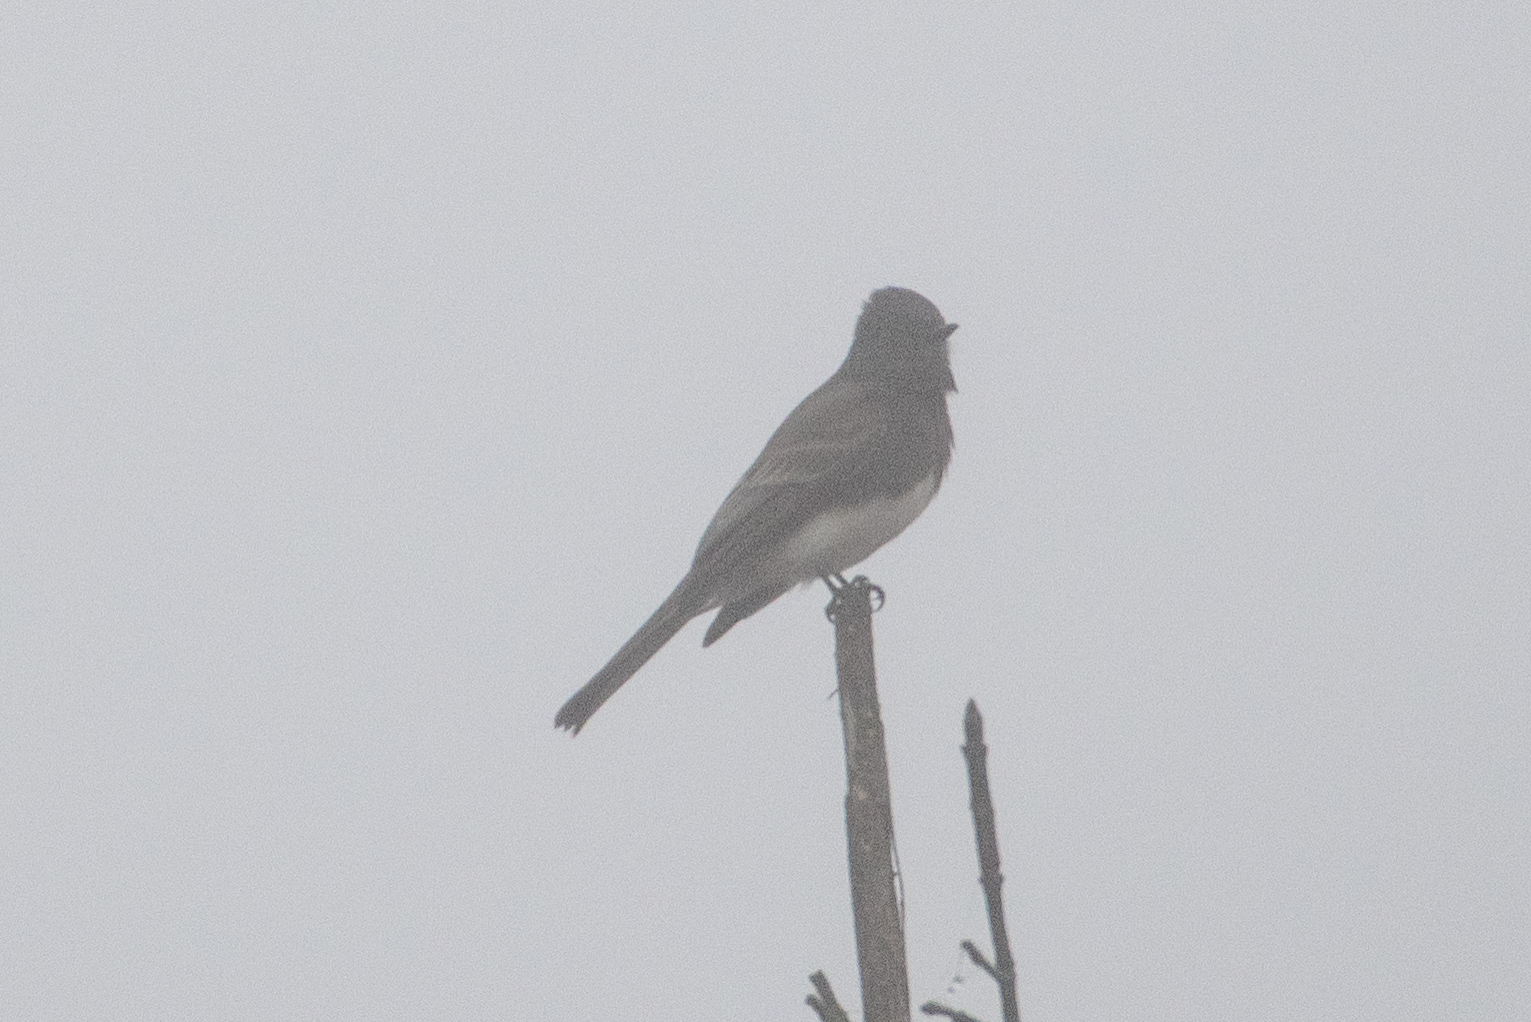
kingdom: Animalia
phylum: Chordata
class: Aves
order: Passeriformes
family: Tyrannidae
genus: Sayornis
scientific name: Sayornis nigricans
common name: Black phoebe
